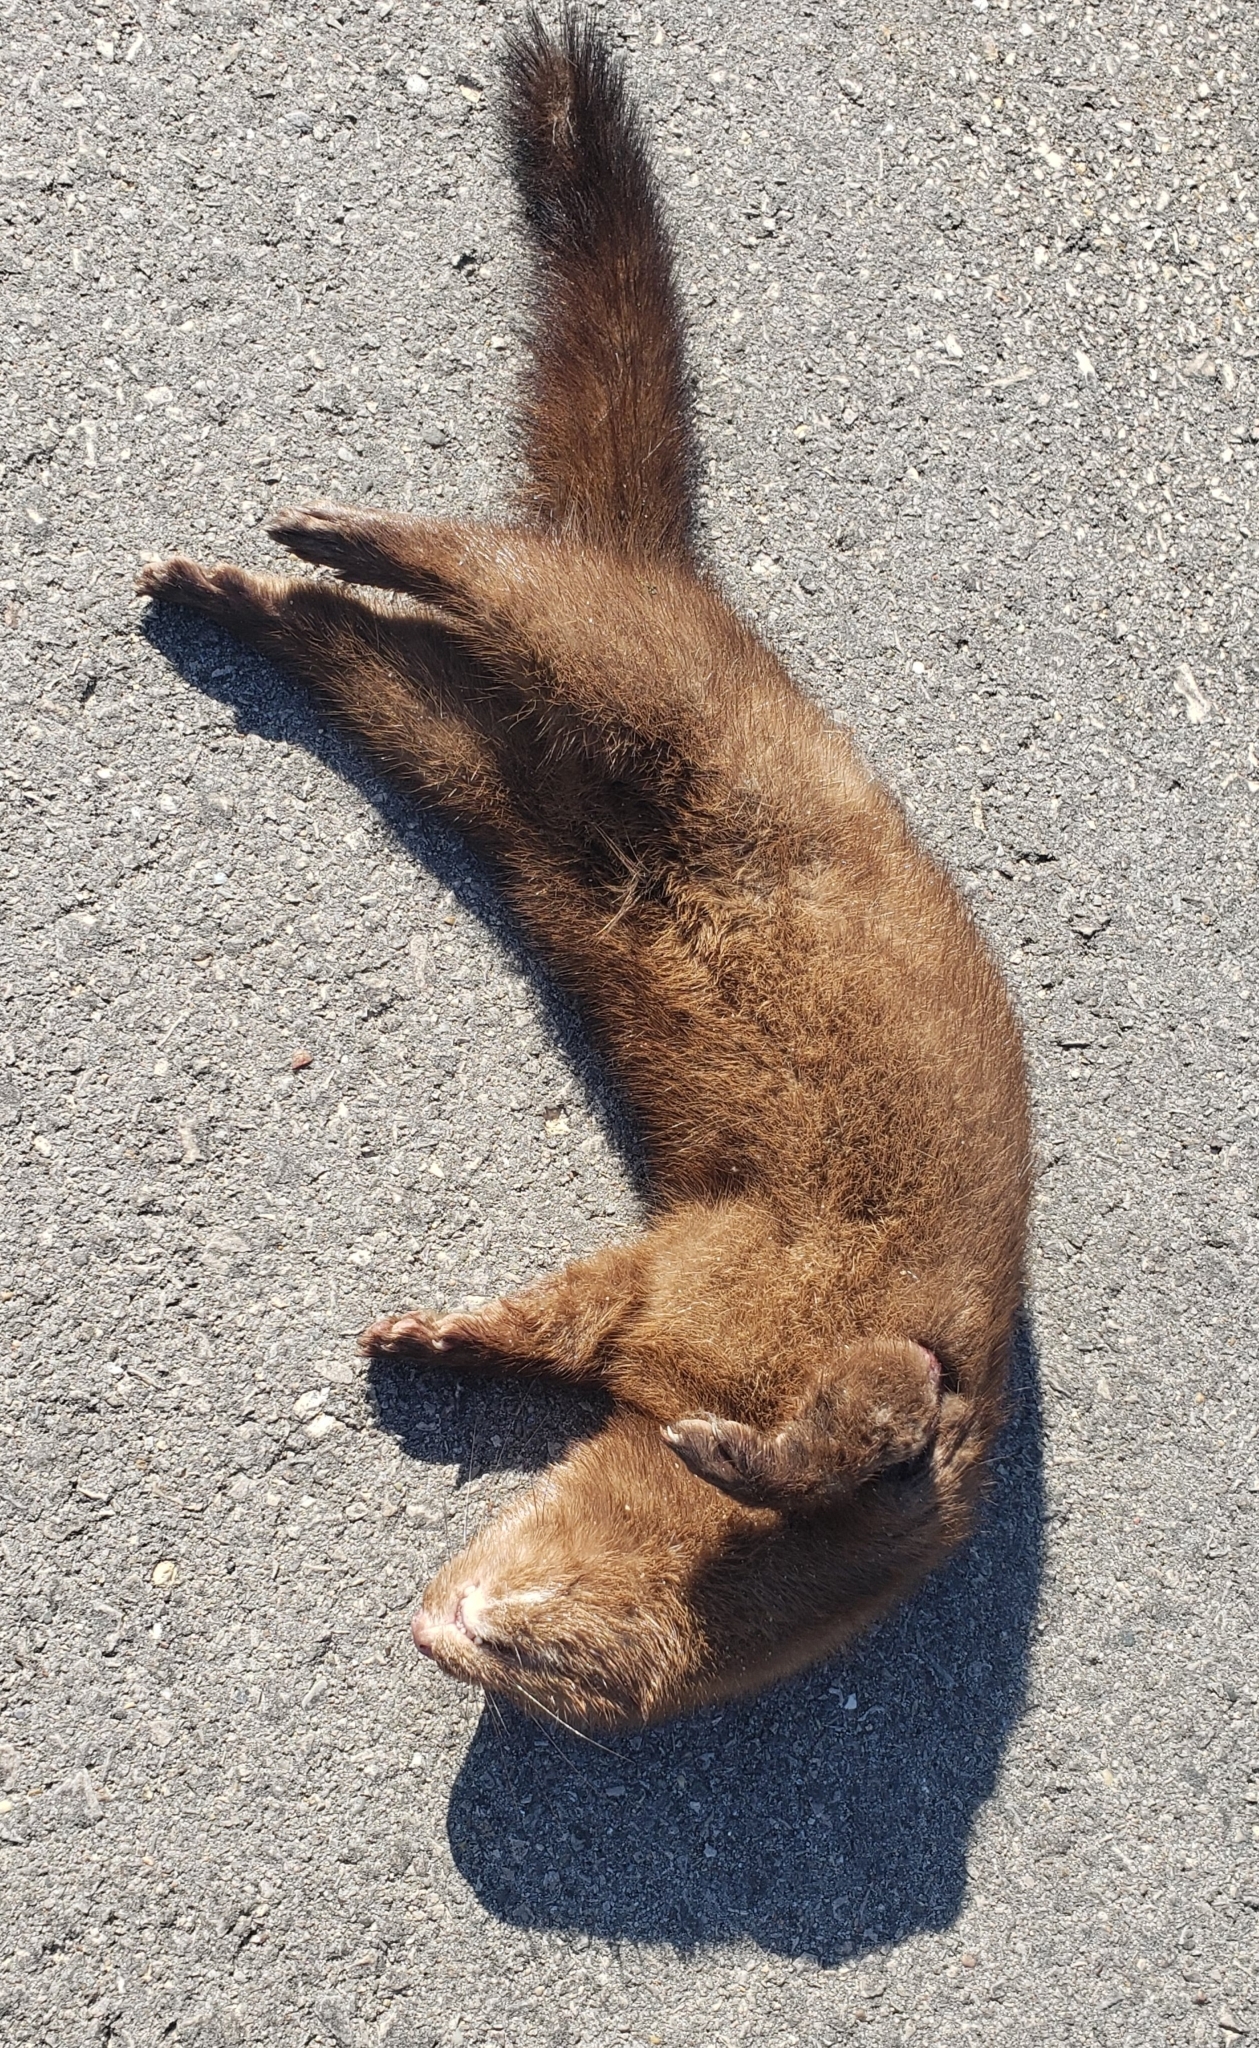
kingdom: Animalia
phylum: Chordata
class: Mammalia
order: Carnivora
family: Mustelidae
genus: Mustela
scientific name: Mustela
